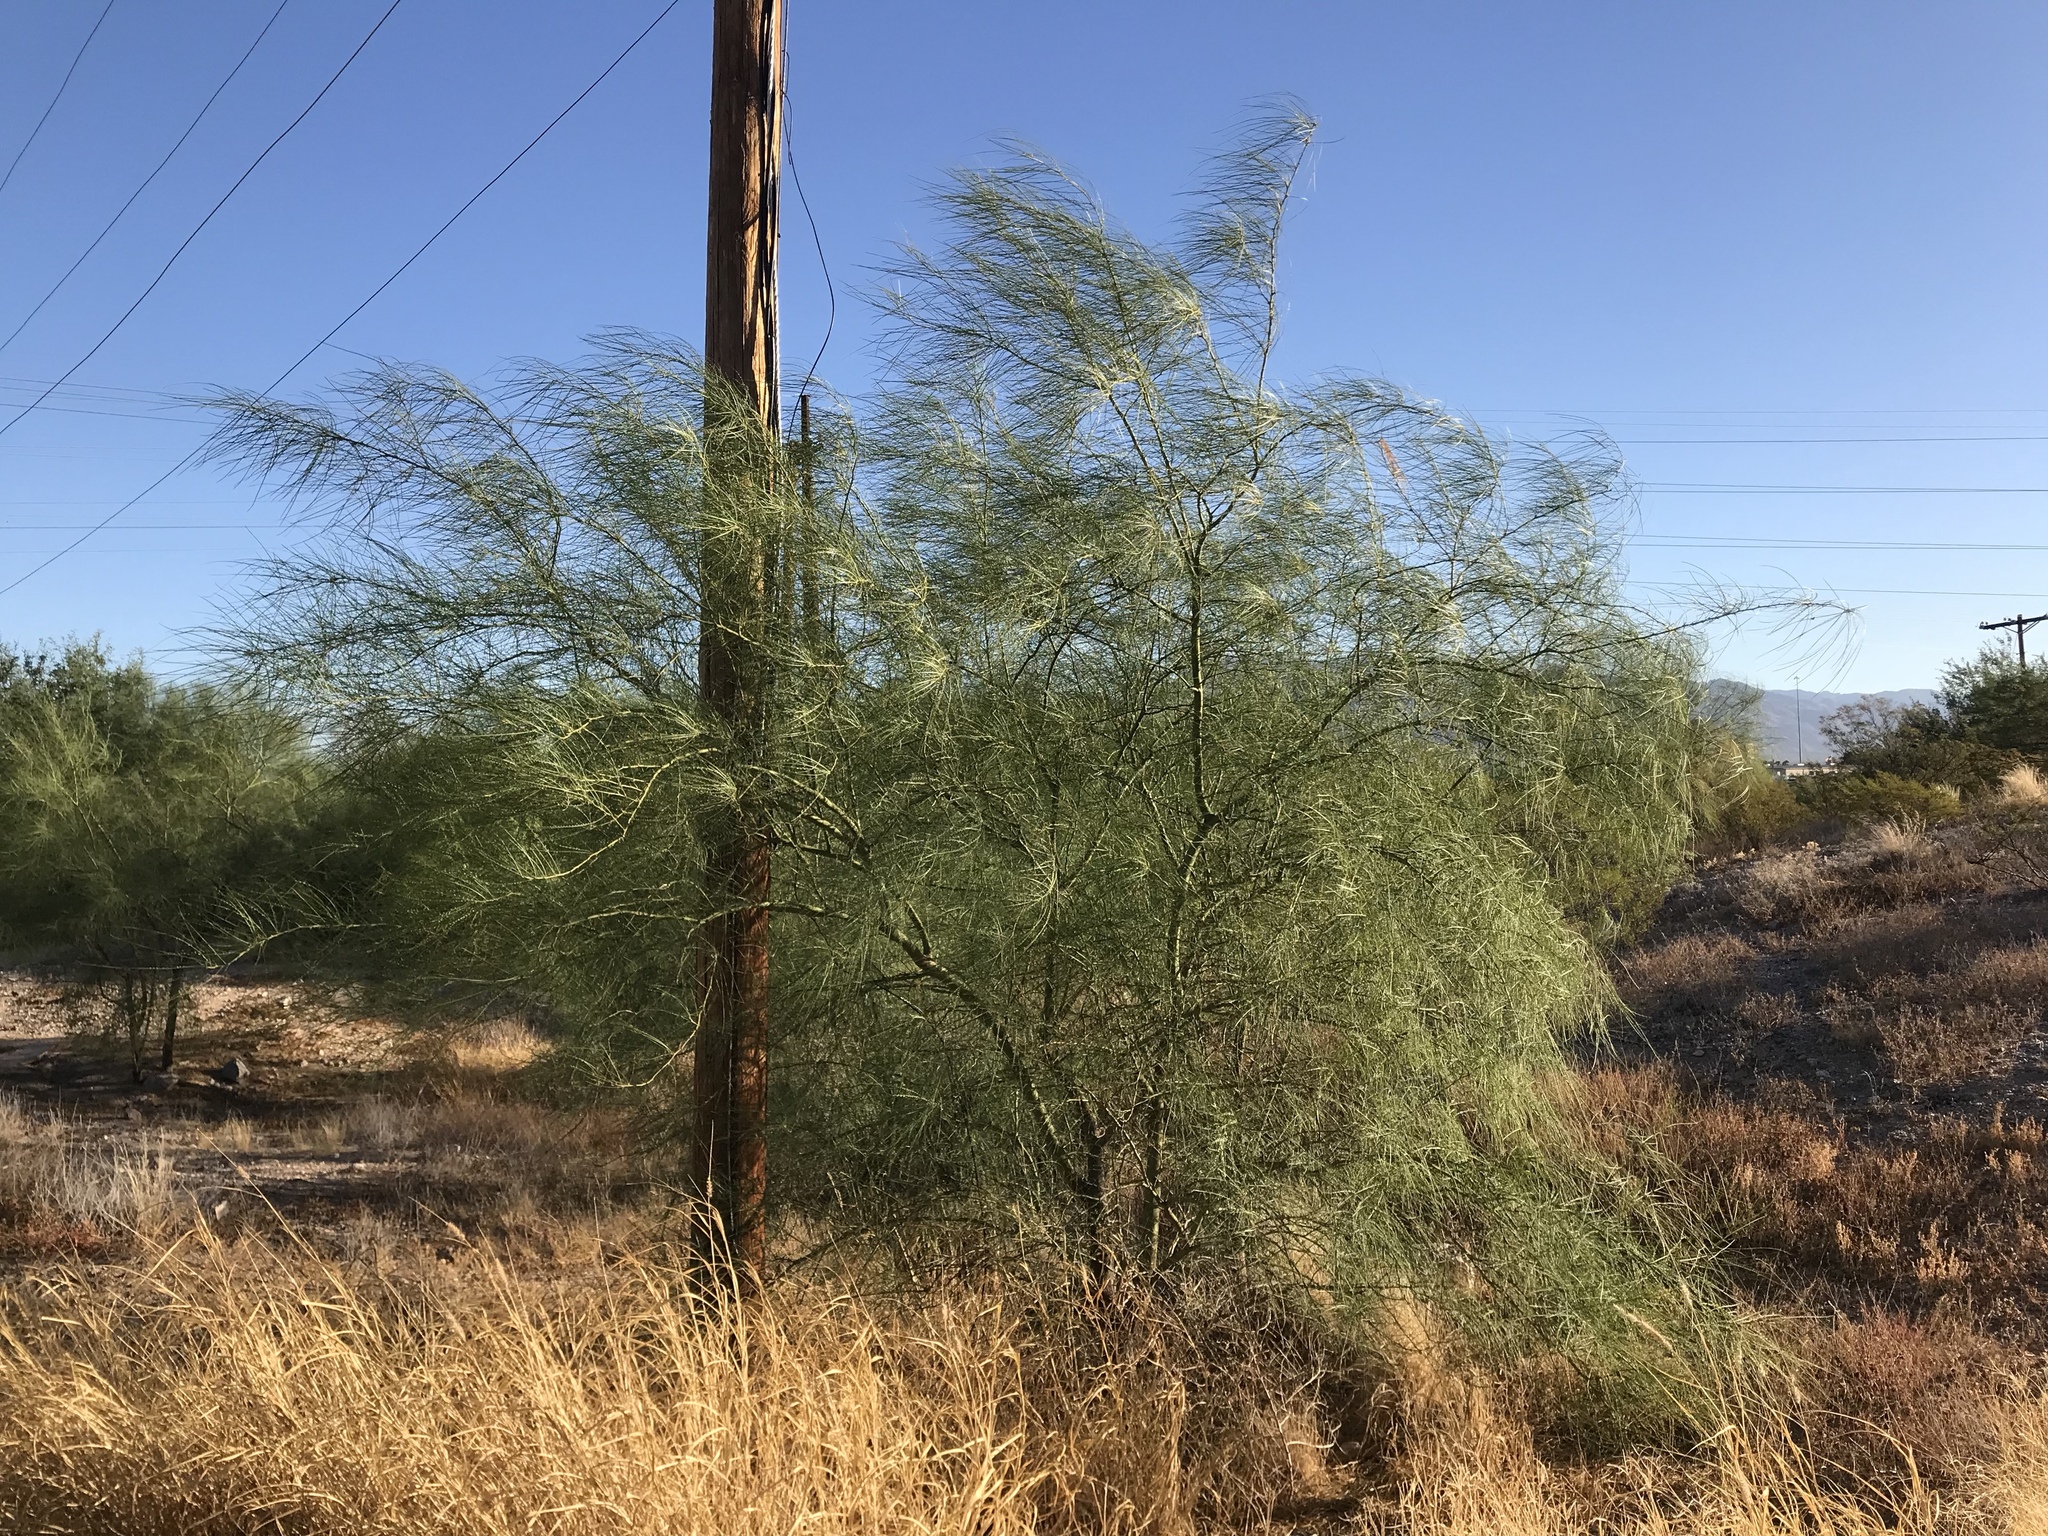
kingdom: Plantae
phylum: Tracheophyta
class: Magnoliopsida
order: Fabales
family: Fabaceae
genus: Parkinsonia
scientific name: Parkinsonia aculeata
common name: Jerusalem thorn
